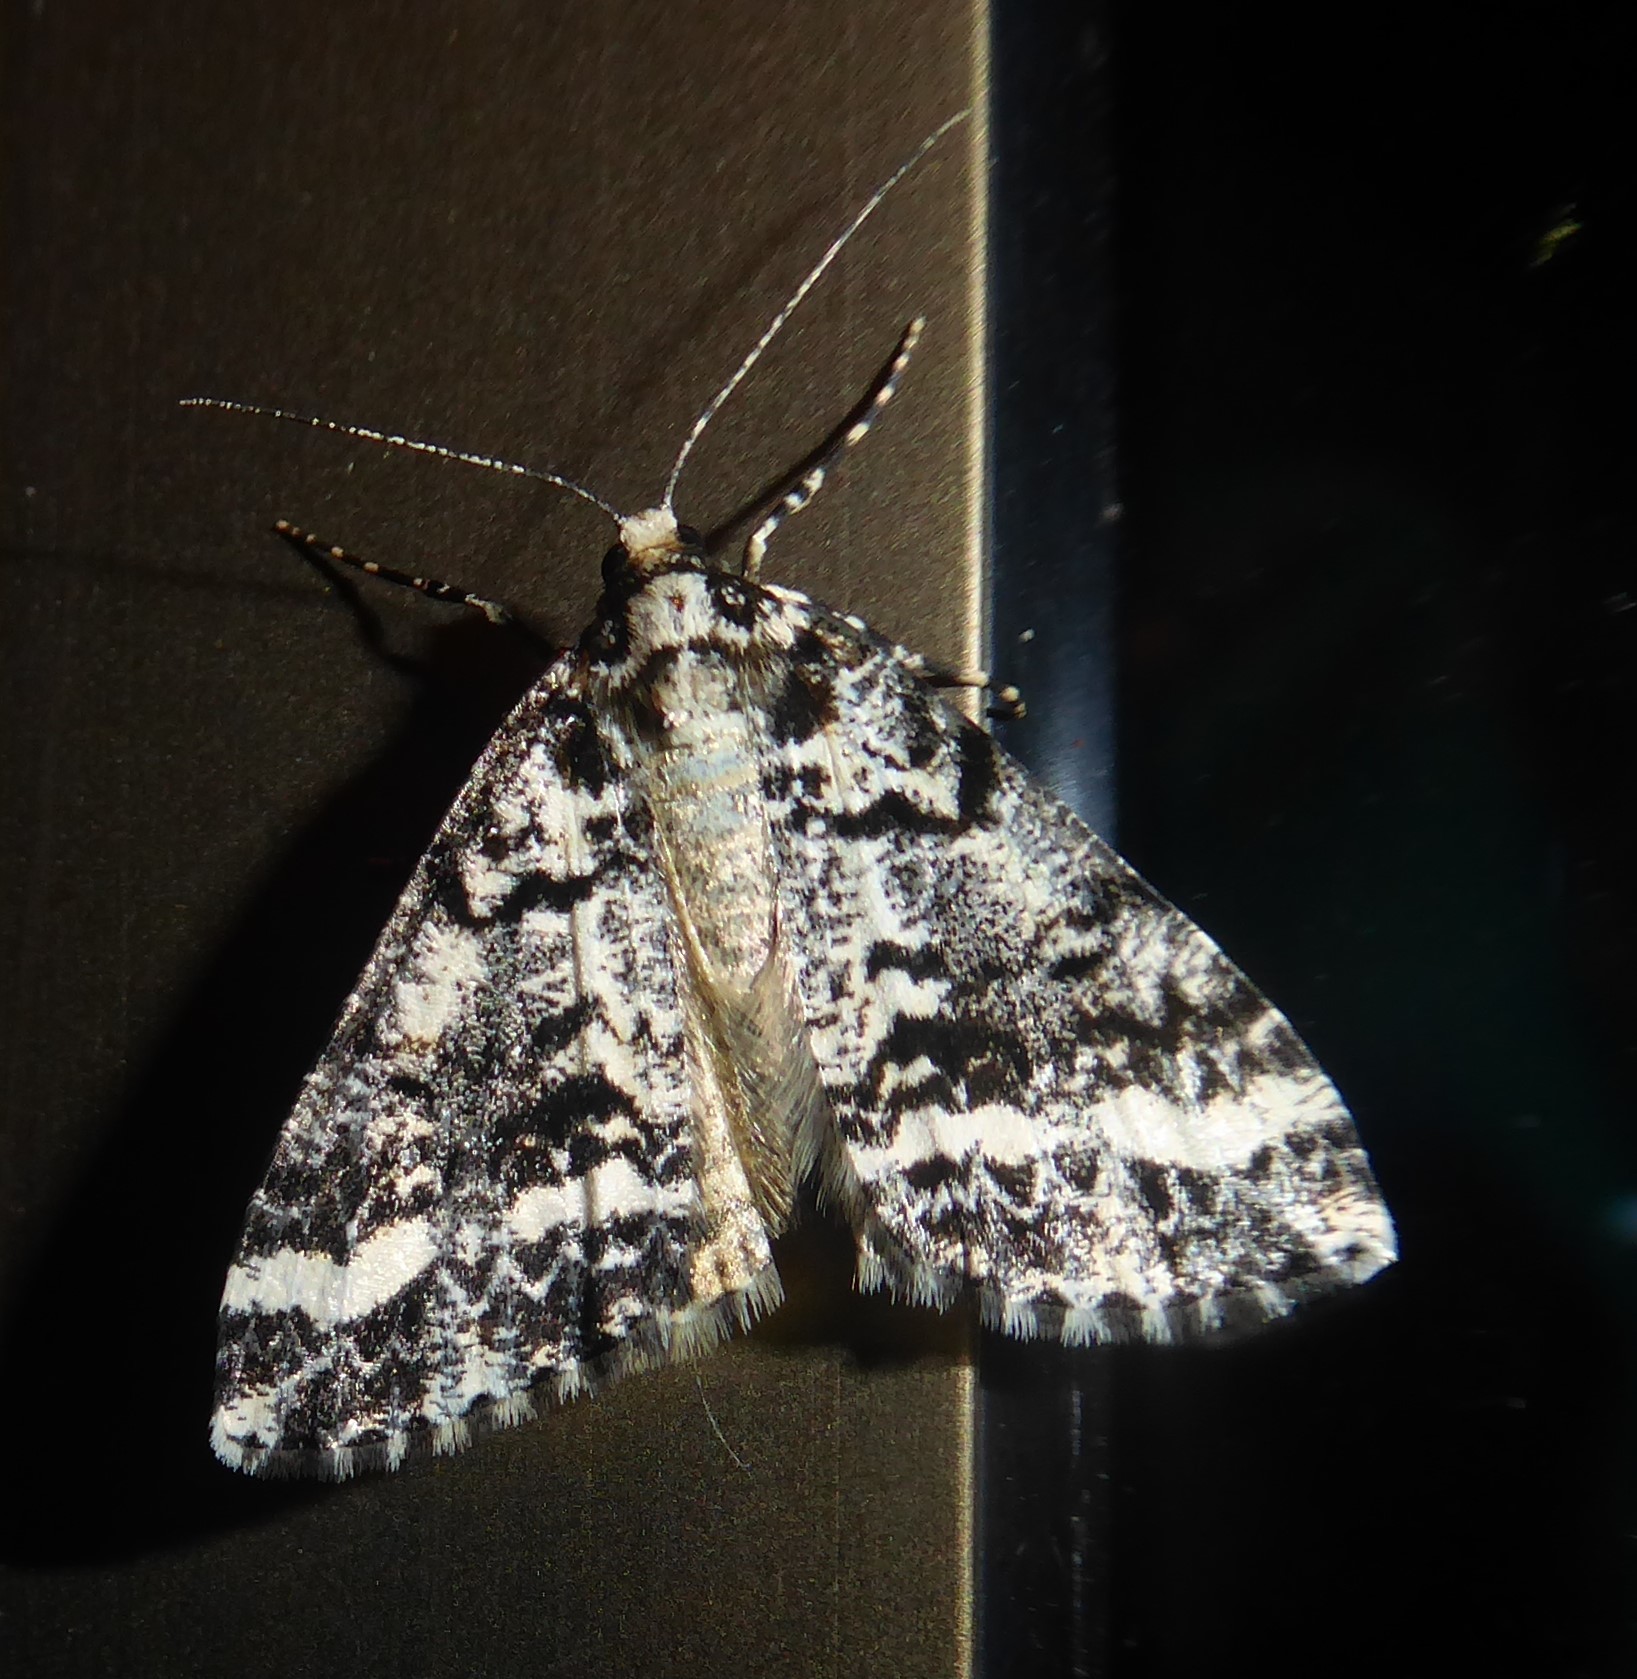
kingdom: Animalia
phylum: Arthropoda
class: Insecta
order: Lepidoptera
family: Geometridae
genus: Pseudocoremia
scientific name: Pseudocoremia leucelaea
